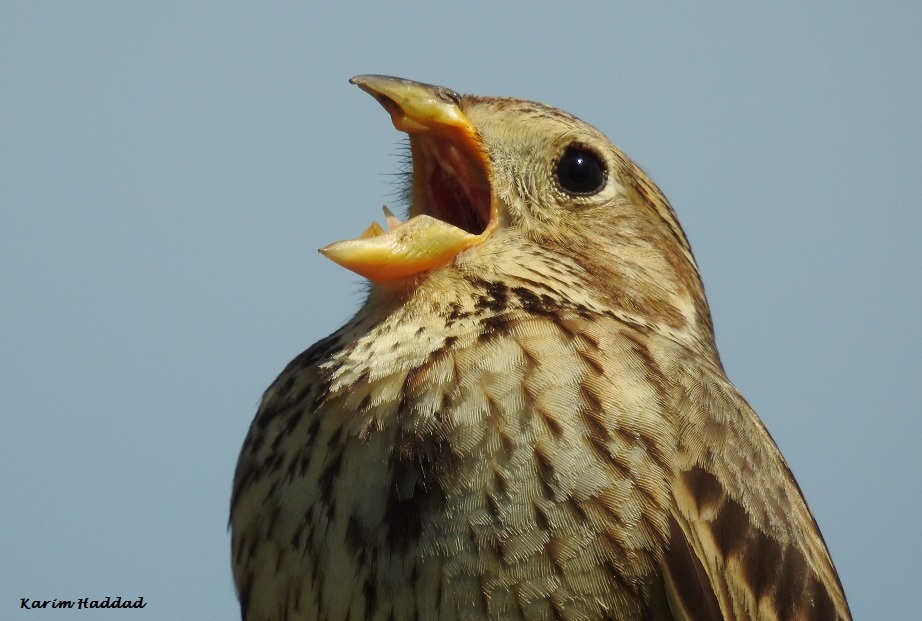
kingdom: Animalia
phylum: Chordata
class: Aves
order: Passeriformes
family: Emberizidae
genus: Emberiza
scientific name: Emberiza calandra
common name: Corn bunting
